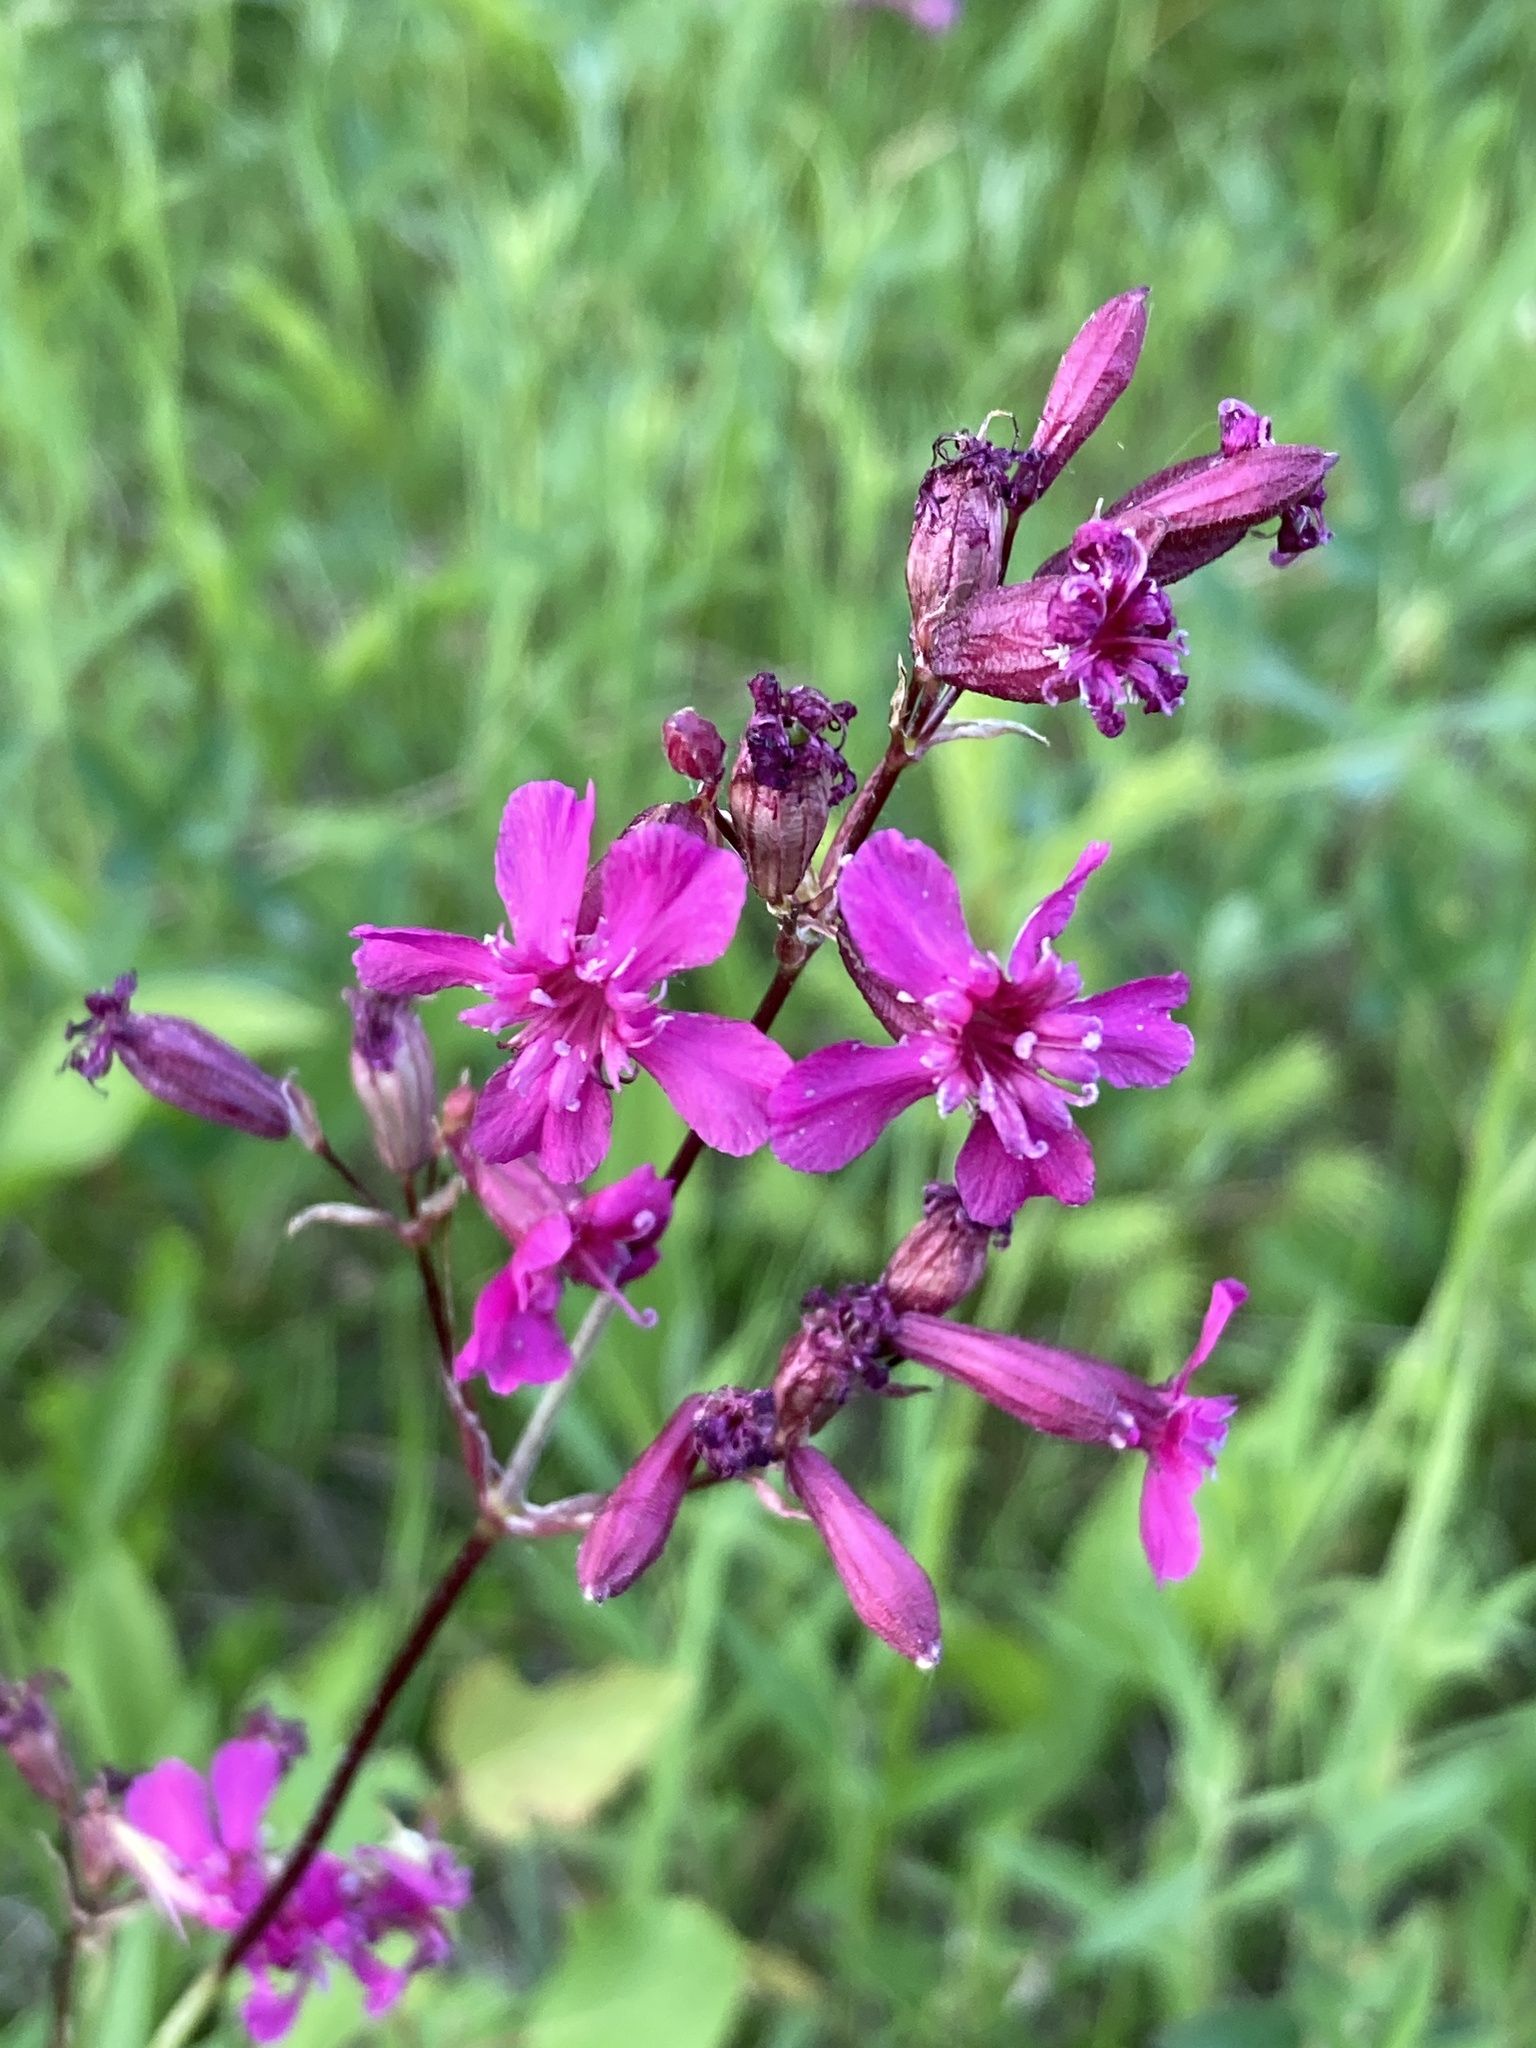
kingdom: Plantae
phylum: Tracheophyta
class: Magnoliopsida
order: Caryophyllales
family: Caryophyllaceae
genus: Viscaria
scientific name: Viscaria vulgaris
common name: Clammy campion
